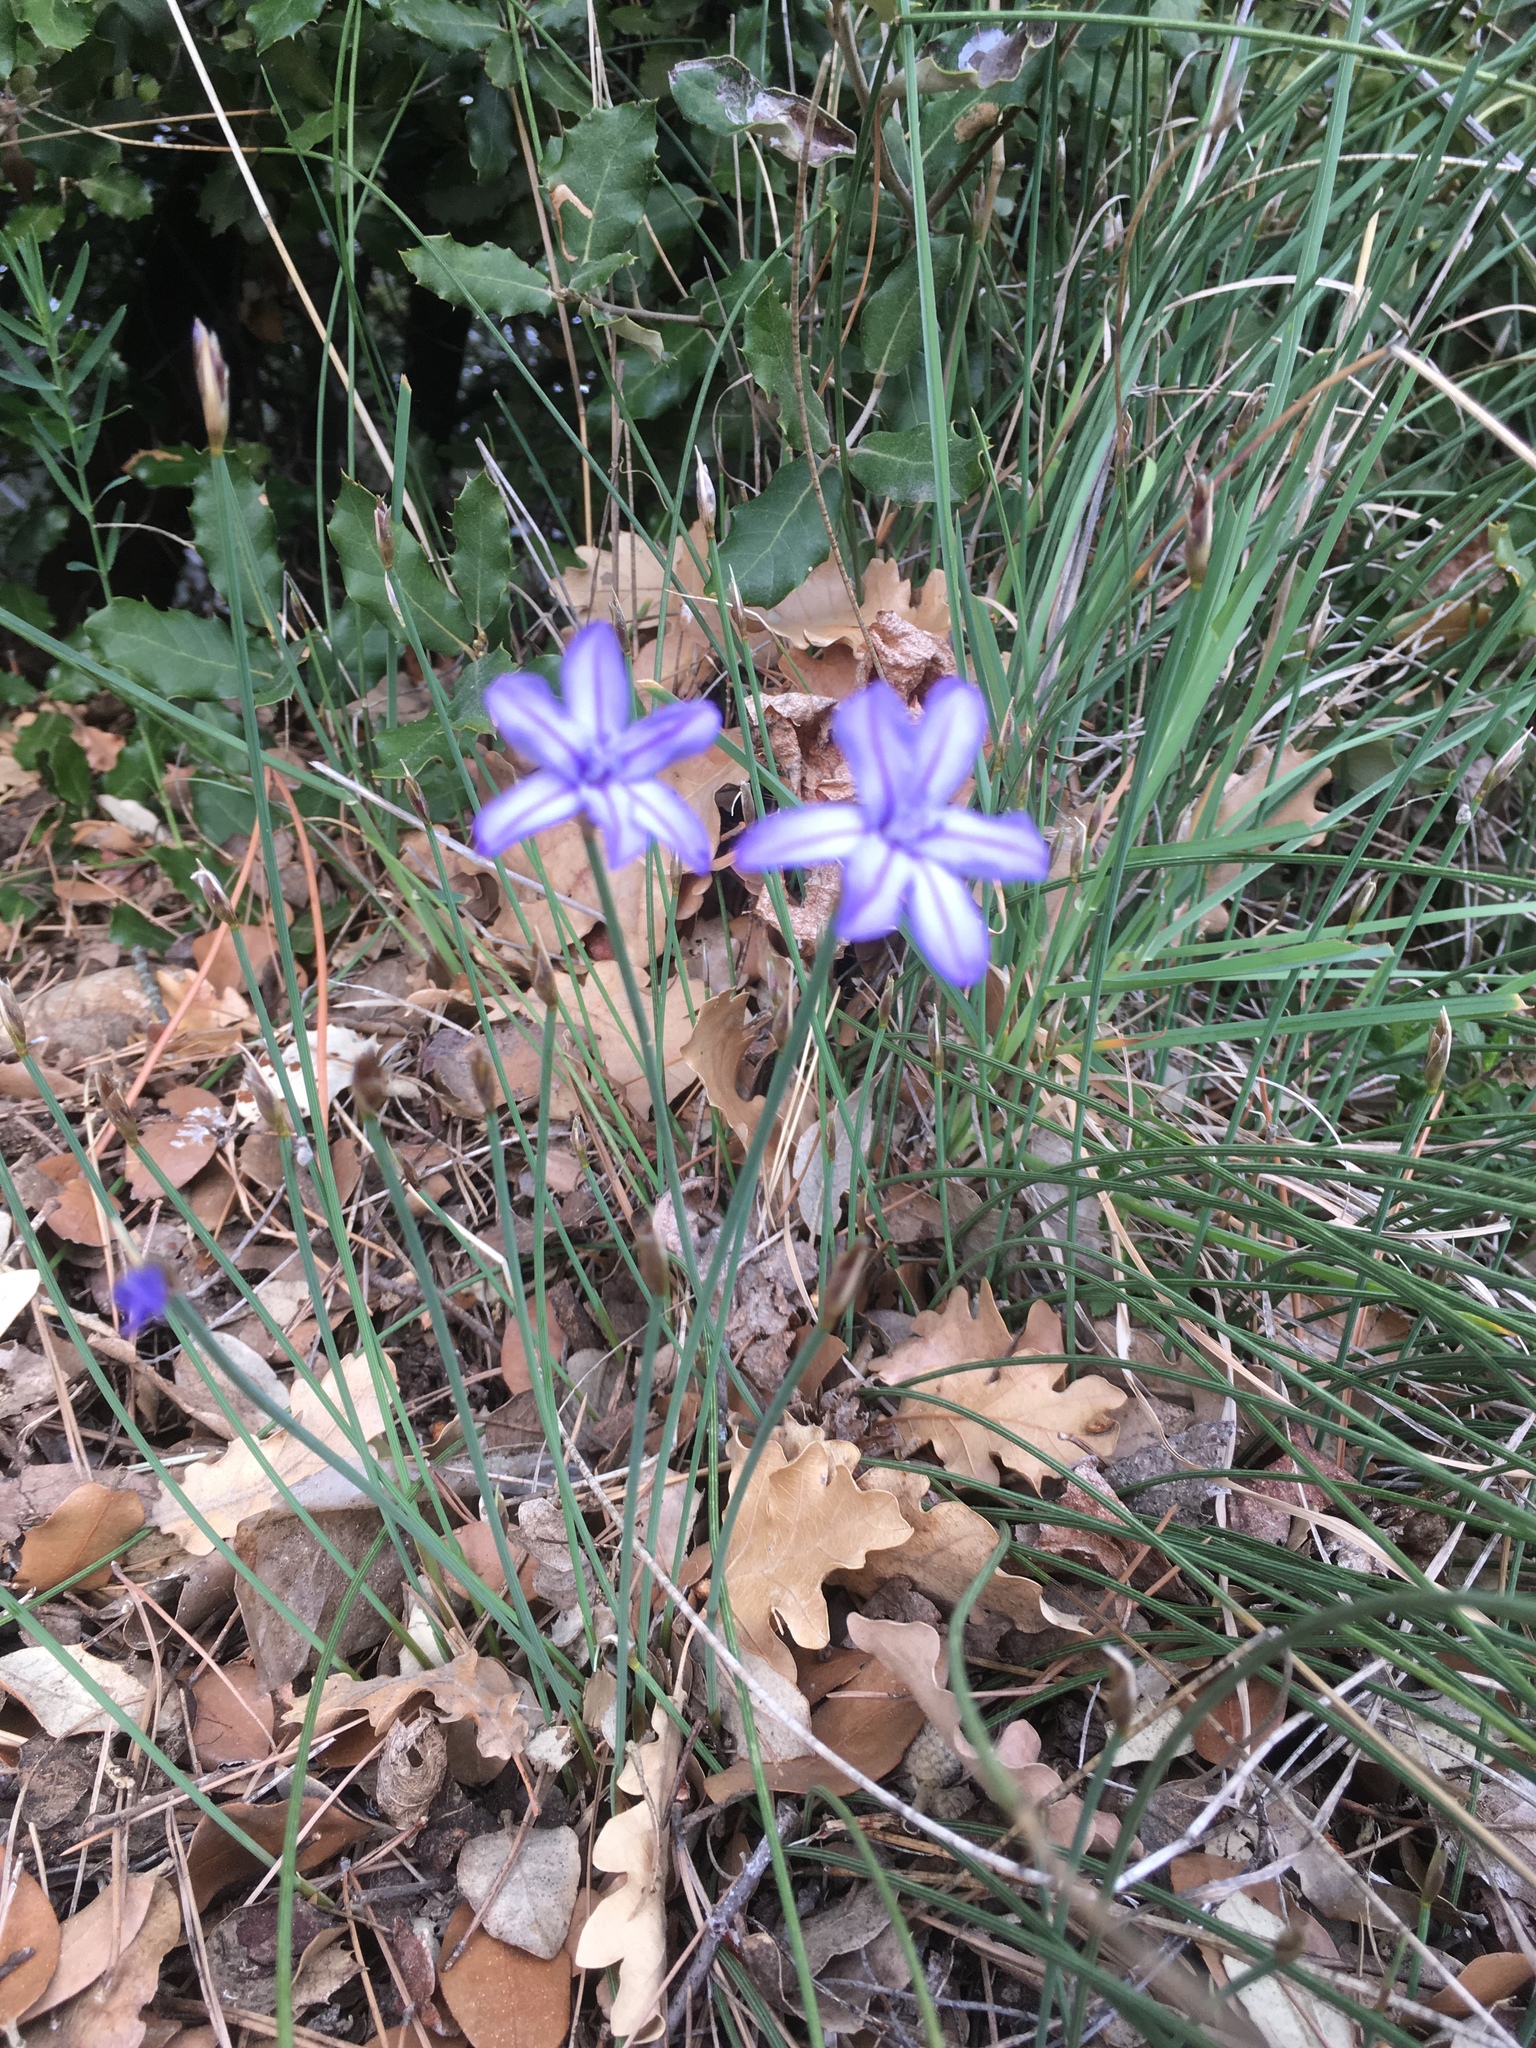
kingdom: Plantae
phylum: Tracheophyta
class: Liliopsida
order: Asparagales
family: Asparagaceae
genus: Aphyllanthes
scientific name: Aphyllanthes monspeliensis
